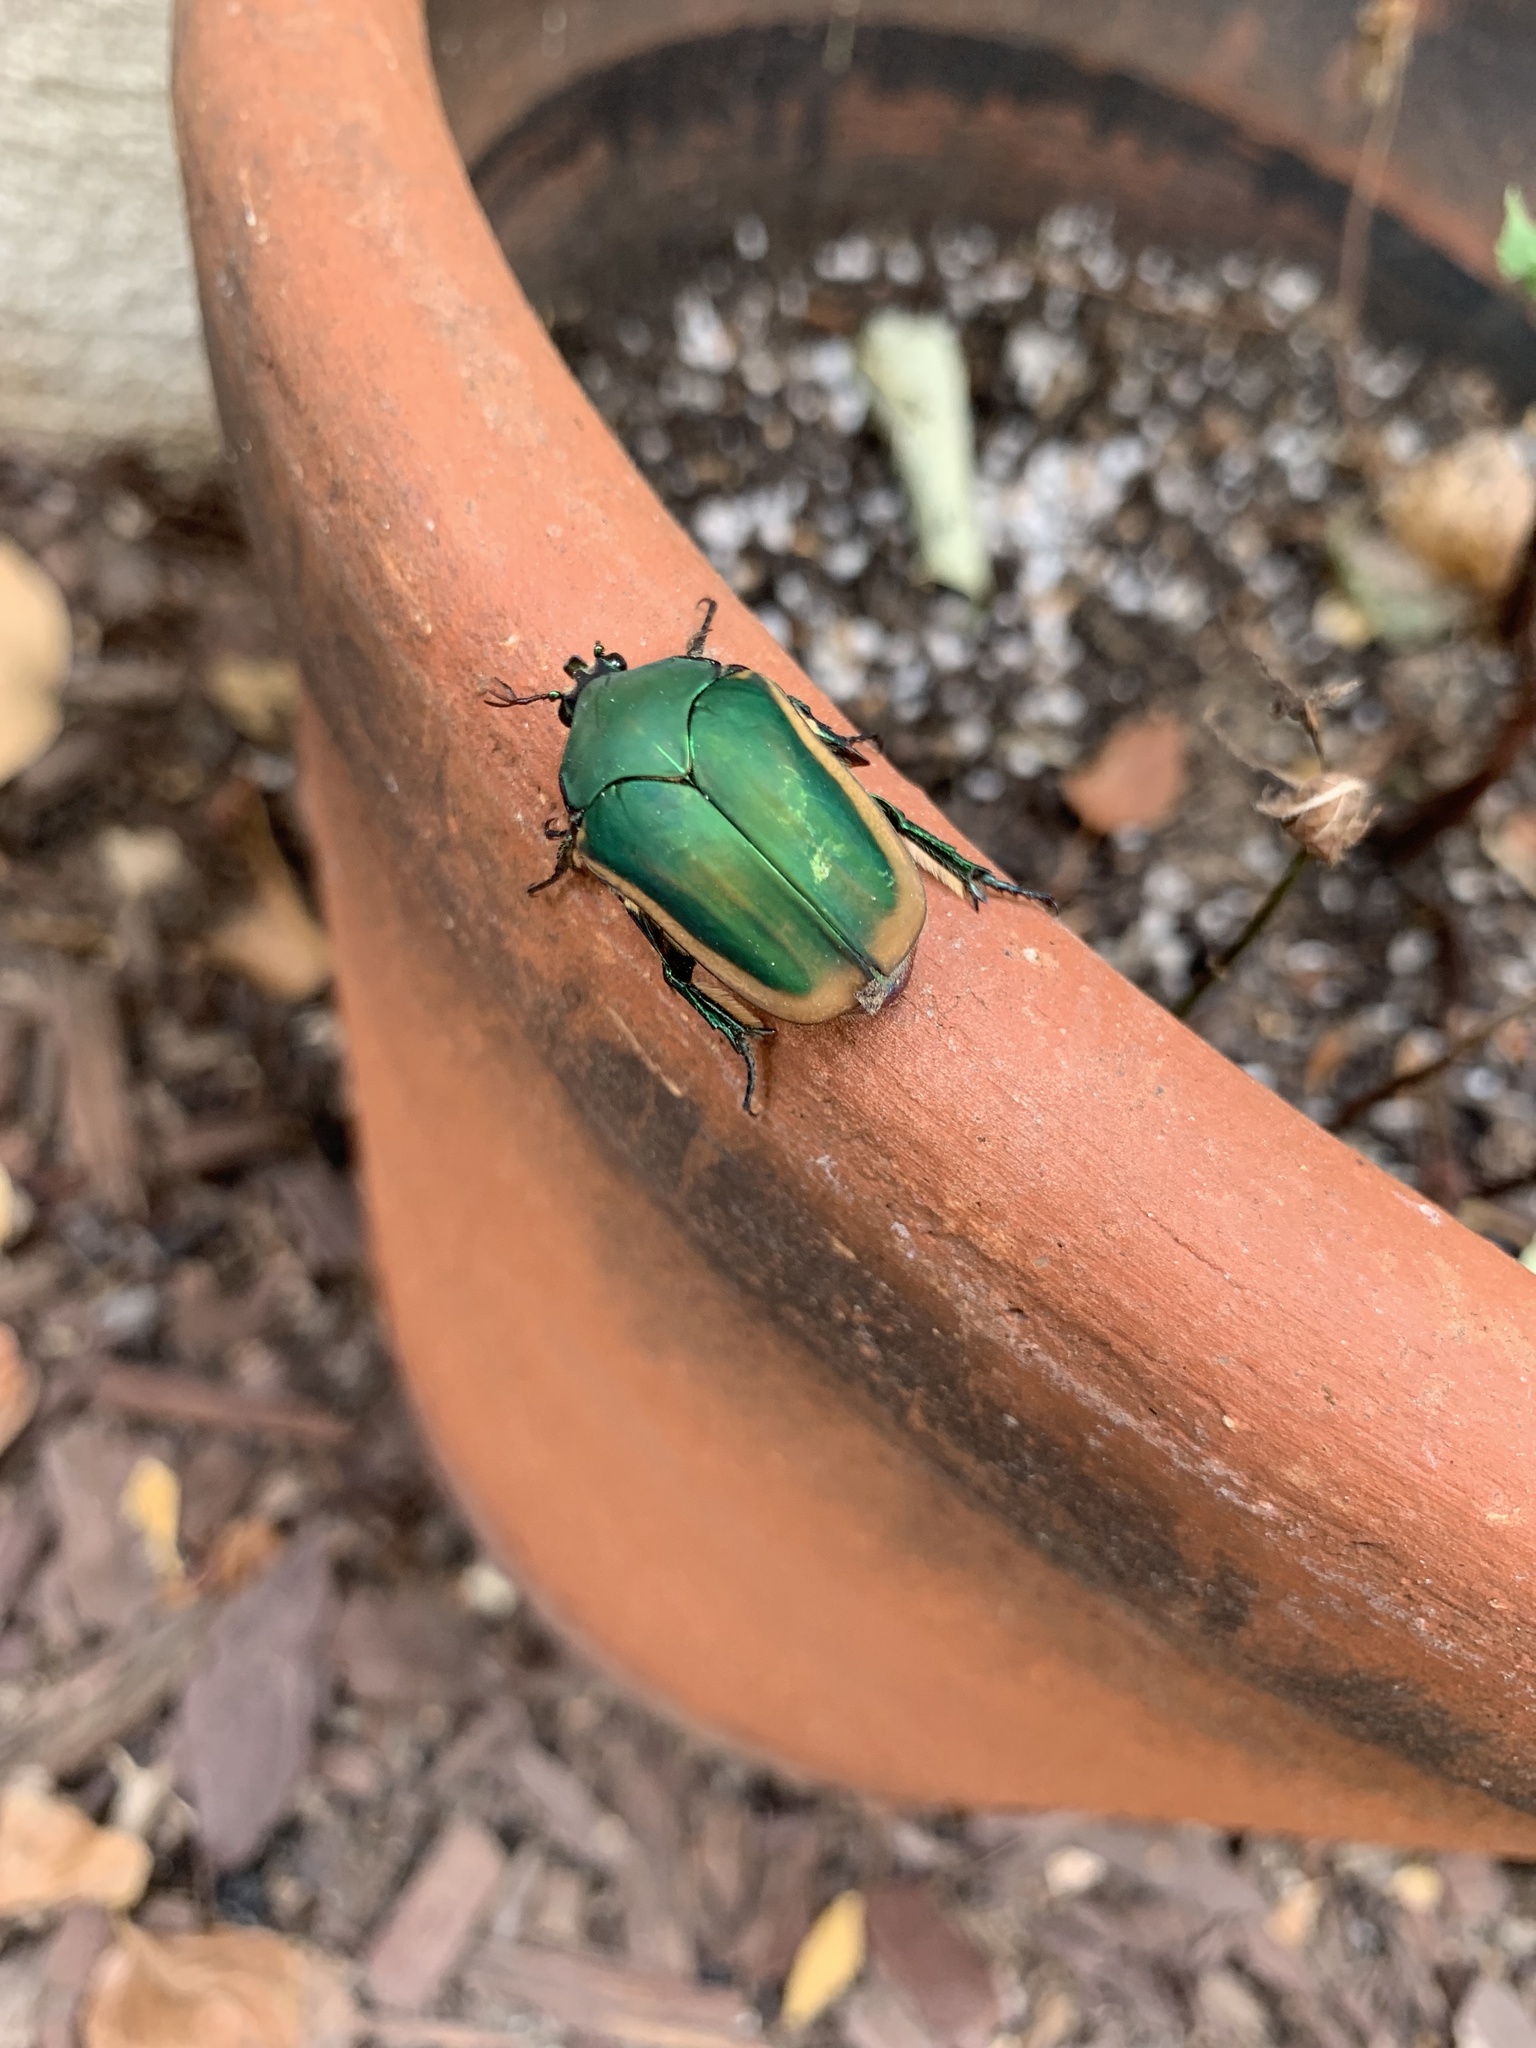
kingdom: Animalia
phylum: Arthropoda
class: Insecta
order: Coleoptera
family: Scarabaeidae
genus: Cotinis
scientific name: Cotinis mutabilis
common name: Figeater beetle
